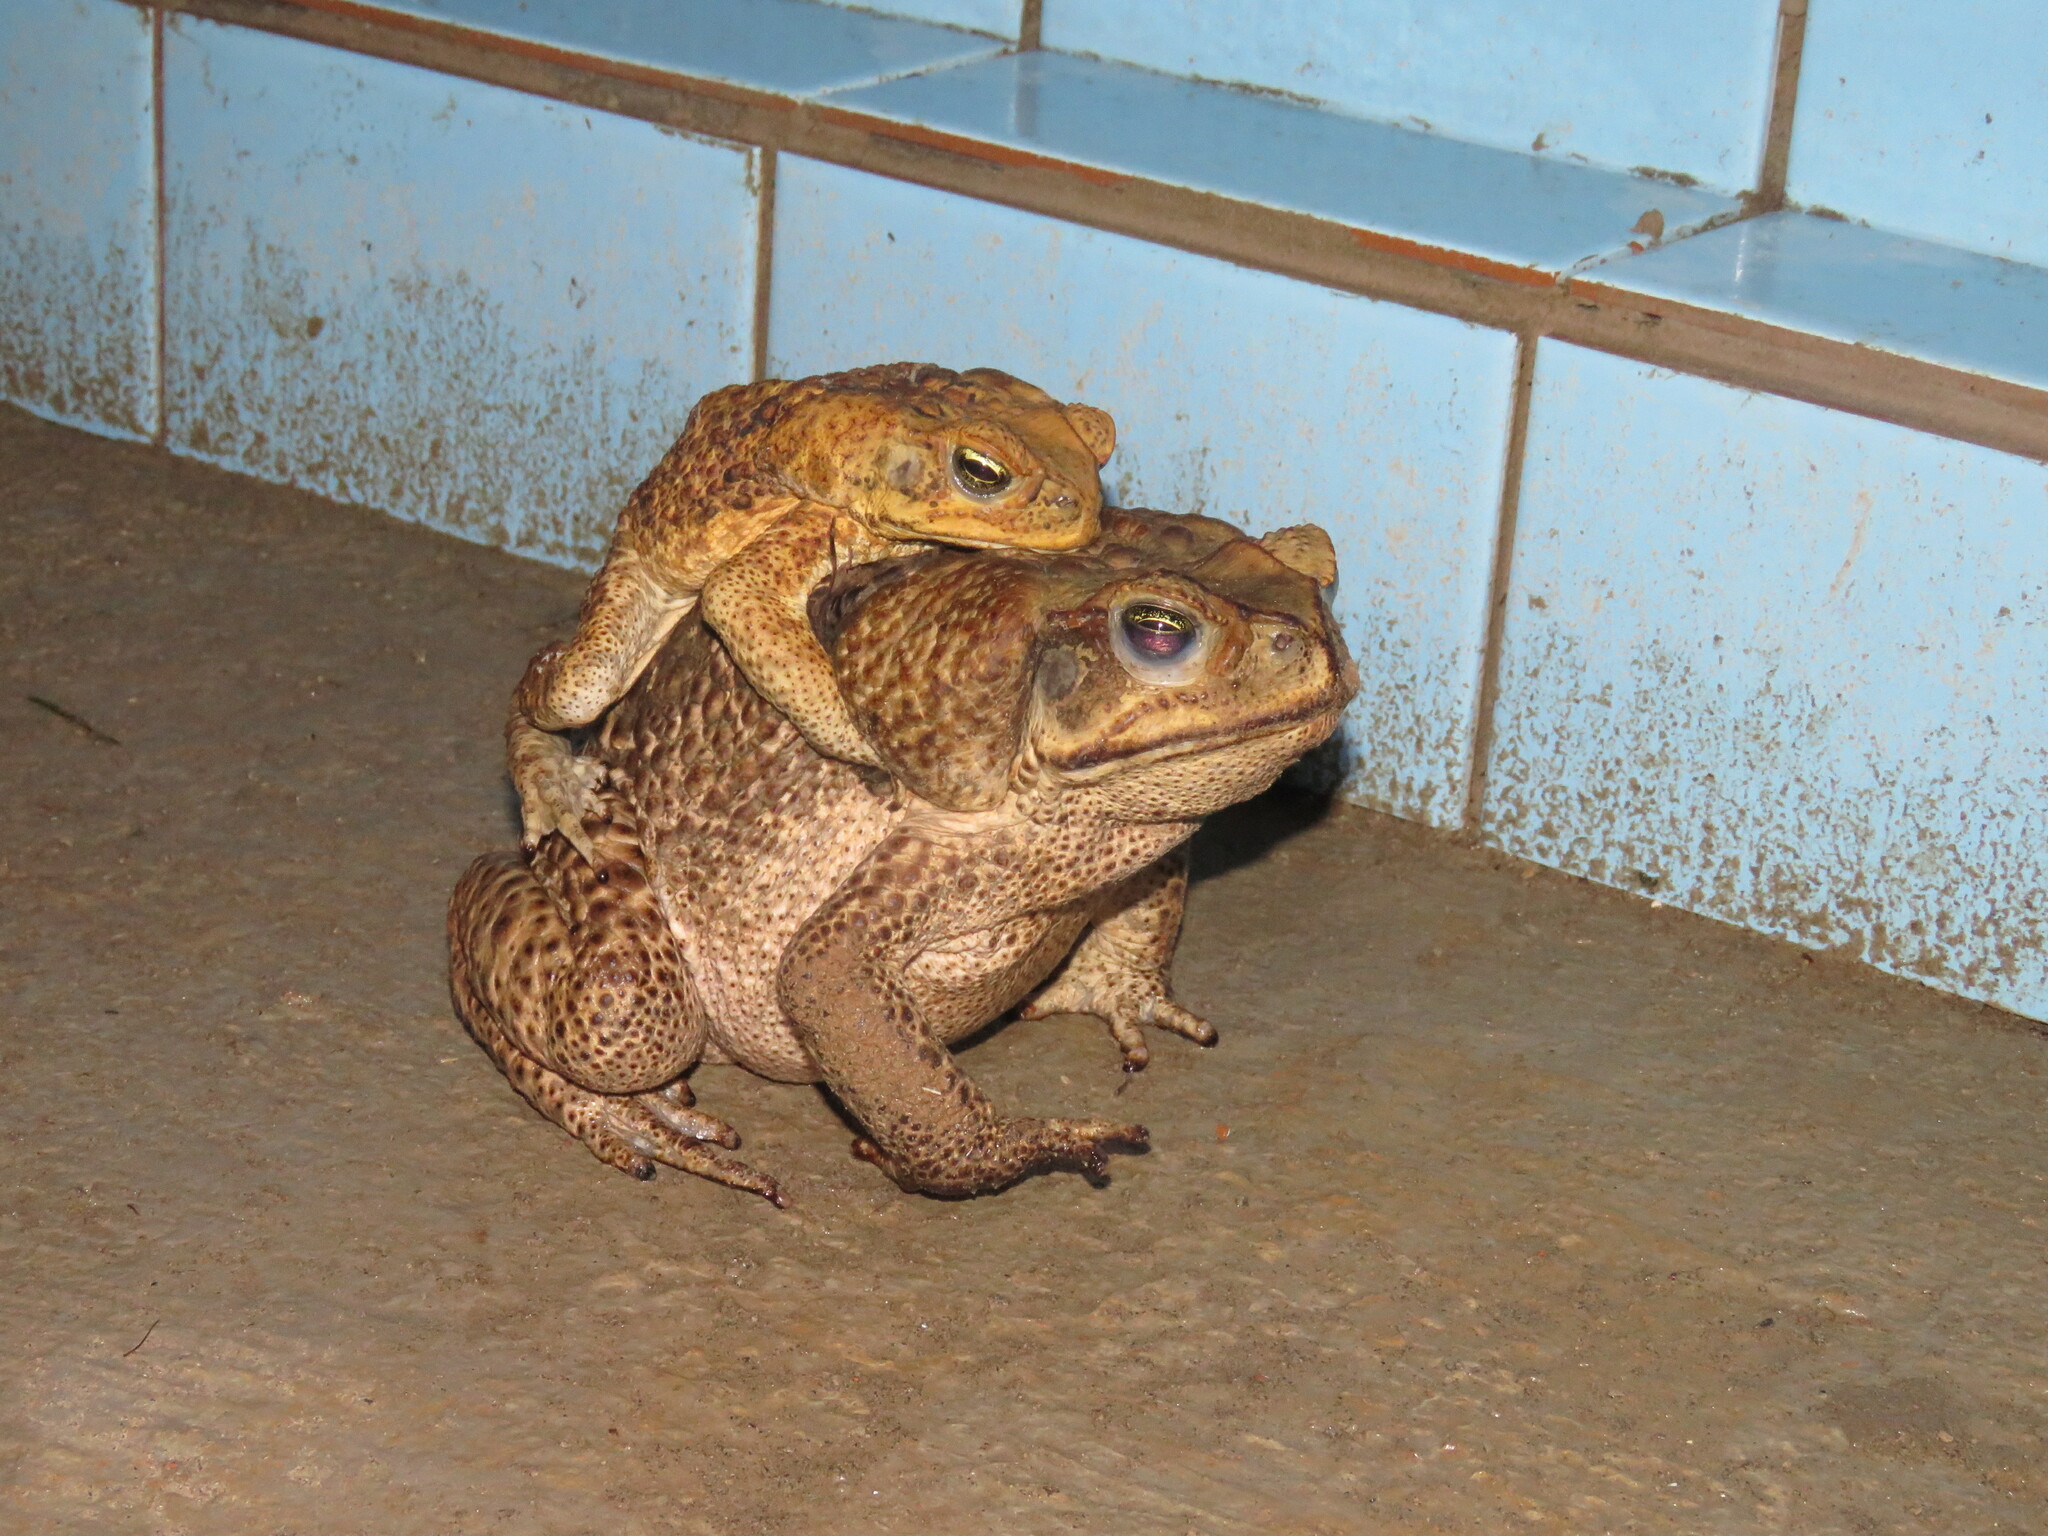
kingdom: Animalia
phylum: Chordata
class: Amphibia
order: Anura
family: Bufonidae
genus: Rhinella
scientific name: Rhinella marina
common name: Cane toad
